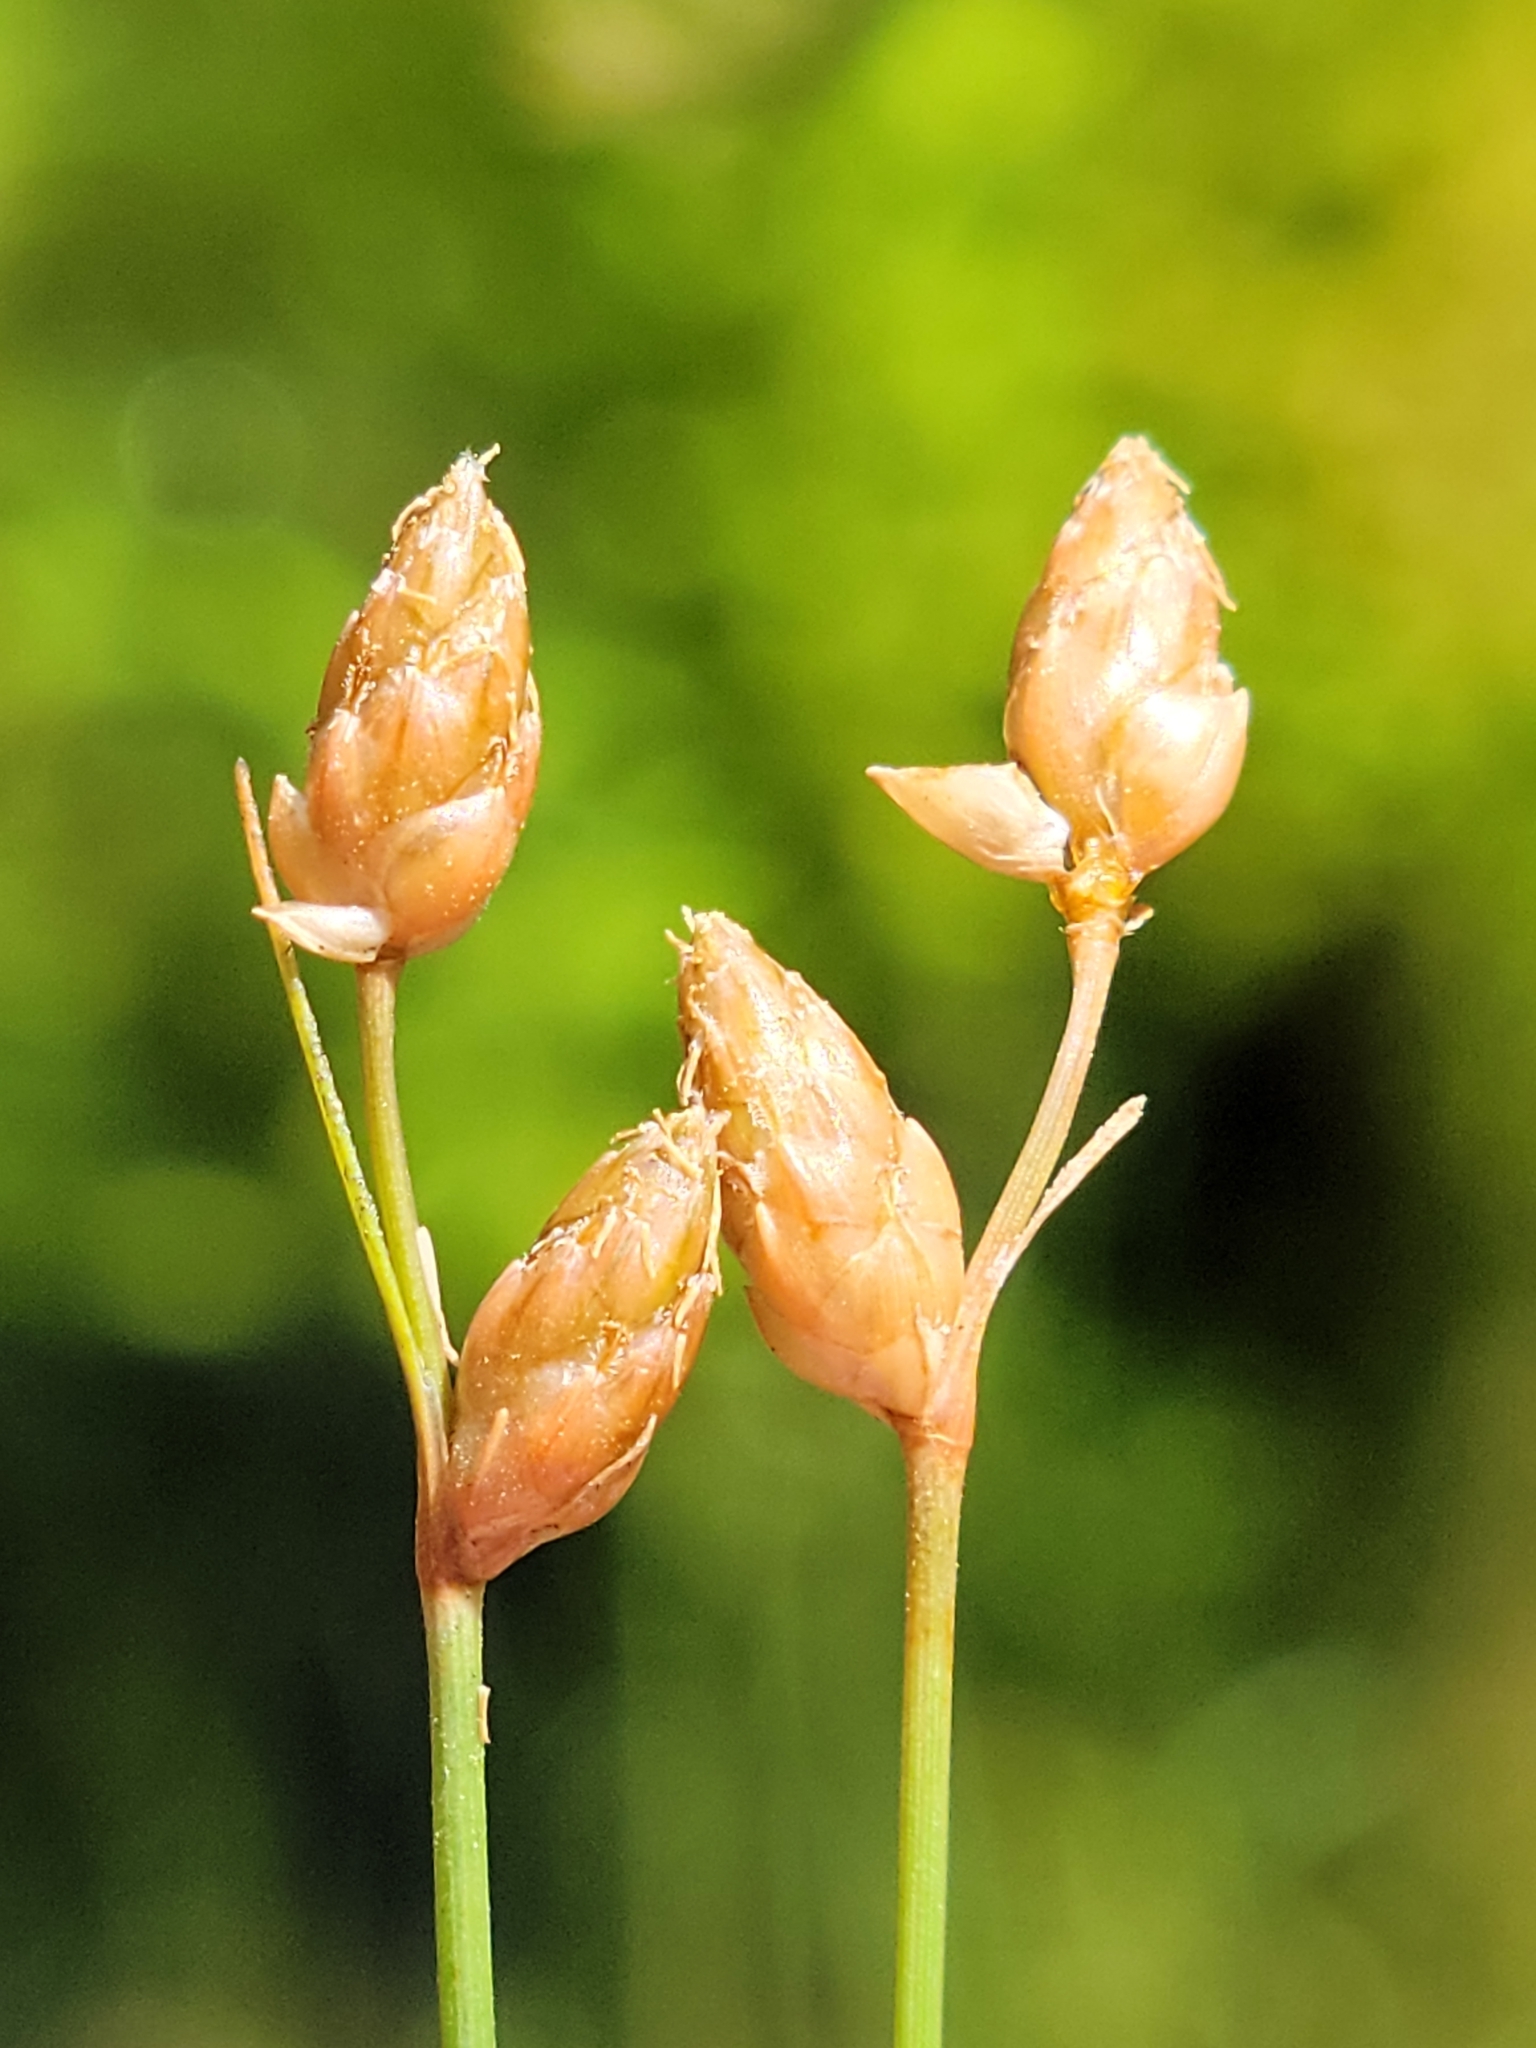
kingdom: Plantae
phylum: Tracheophyta
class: Liliopsida
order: Poales
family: Cyperaceae
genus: Fimbristylis
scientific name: Fimbristylis schoenoides
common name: Ditch fimbry
